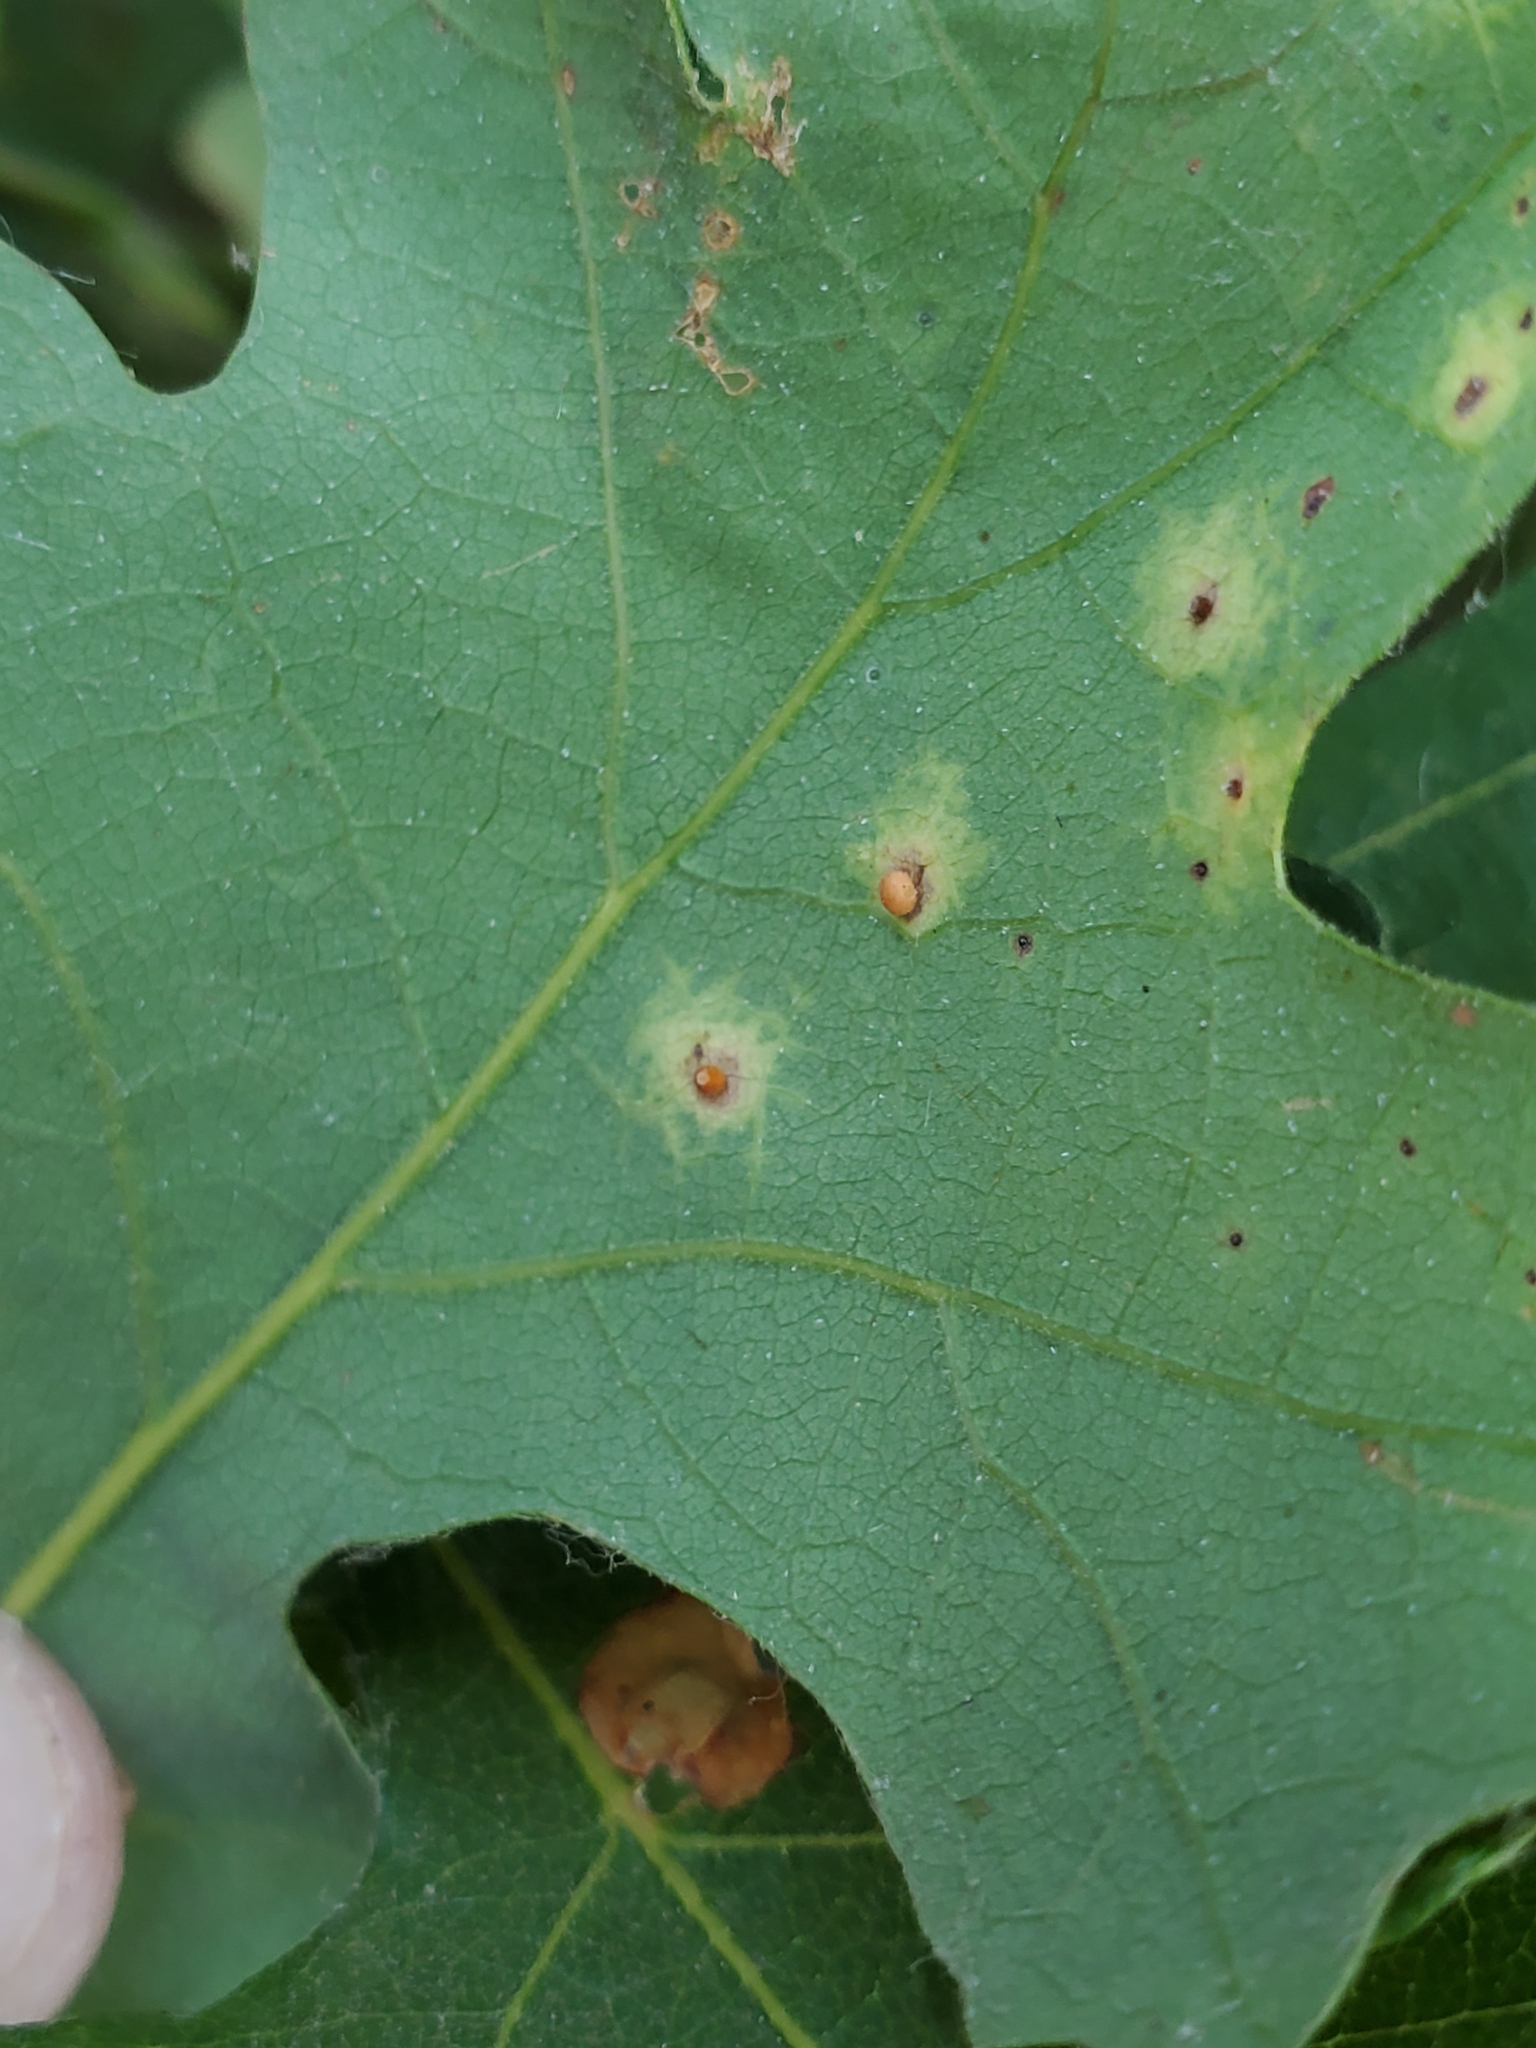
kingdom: Animalia
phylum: Arthropoda
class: Insecta
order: Hymenoptera
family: Cynipidae
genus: Neuroterus
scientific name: Neuroterus saltarius
